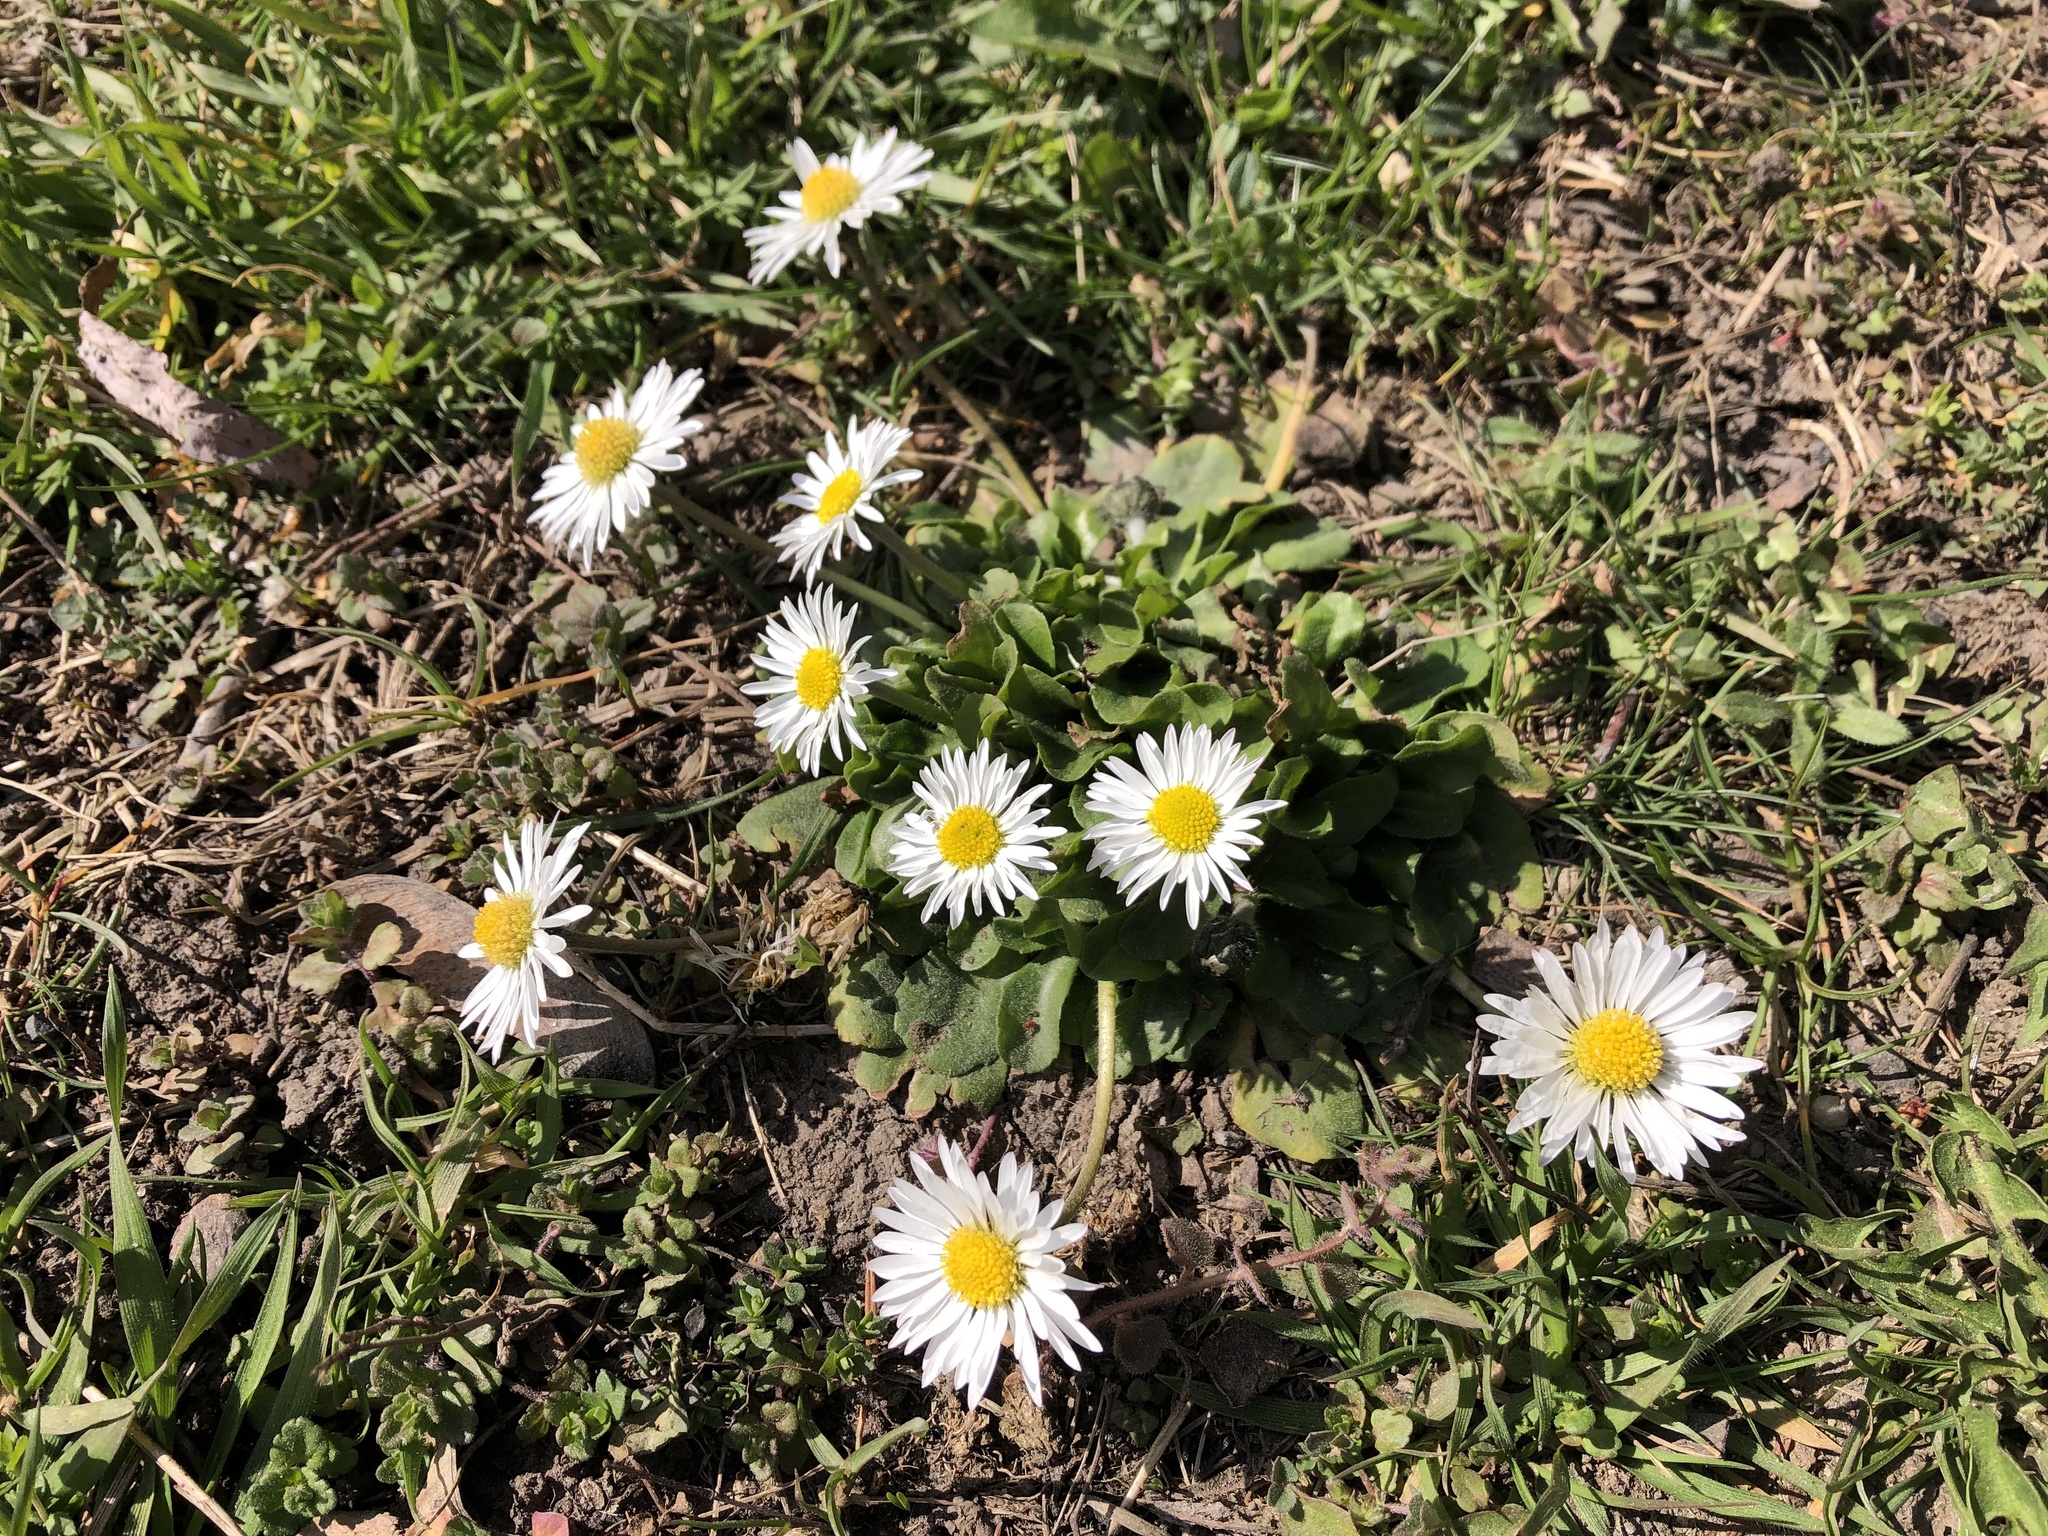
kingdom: Plantae
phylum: Tracheophyta
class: Magnoliopsida
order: Asterales
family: Asteraceae
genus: Bellis
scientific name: Bellis perennis
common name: Lawndaisy
